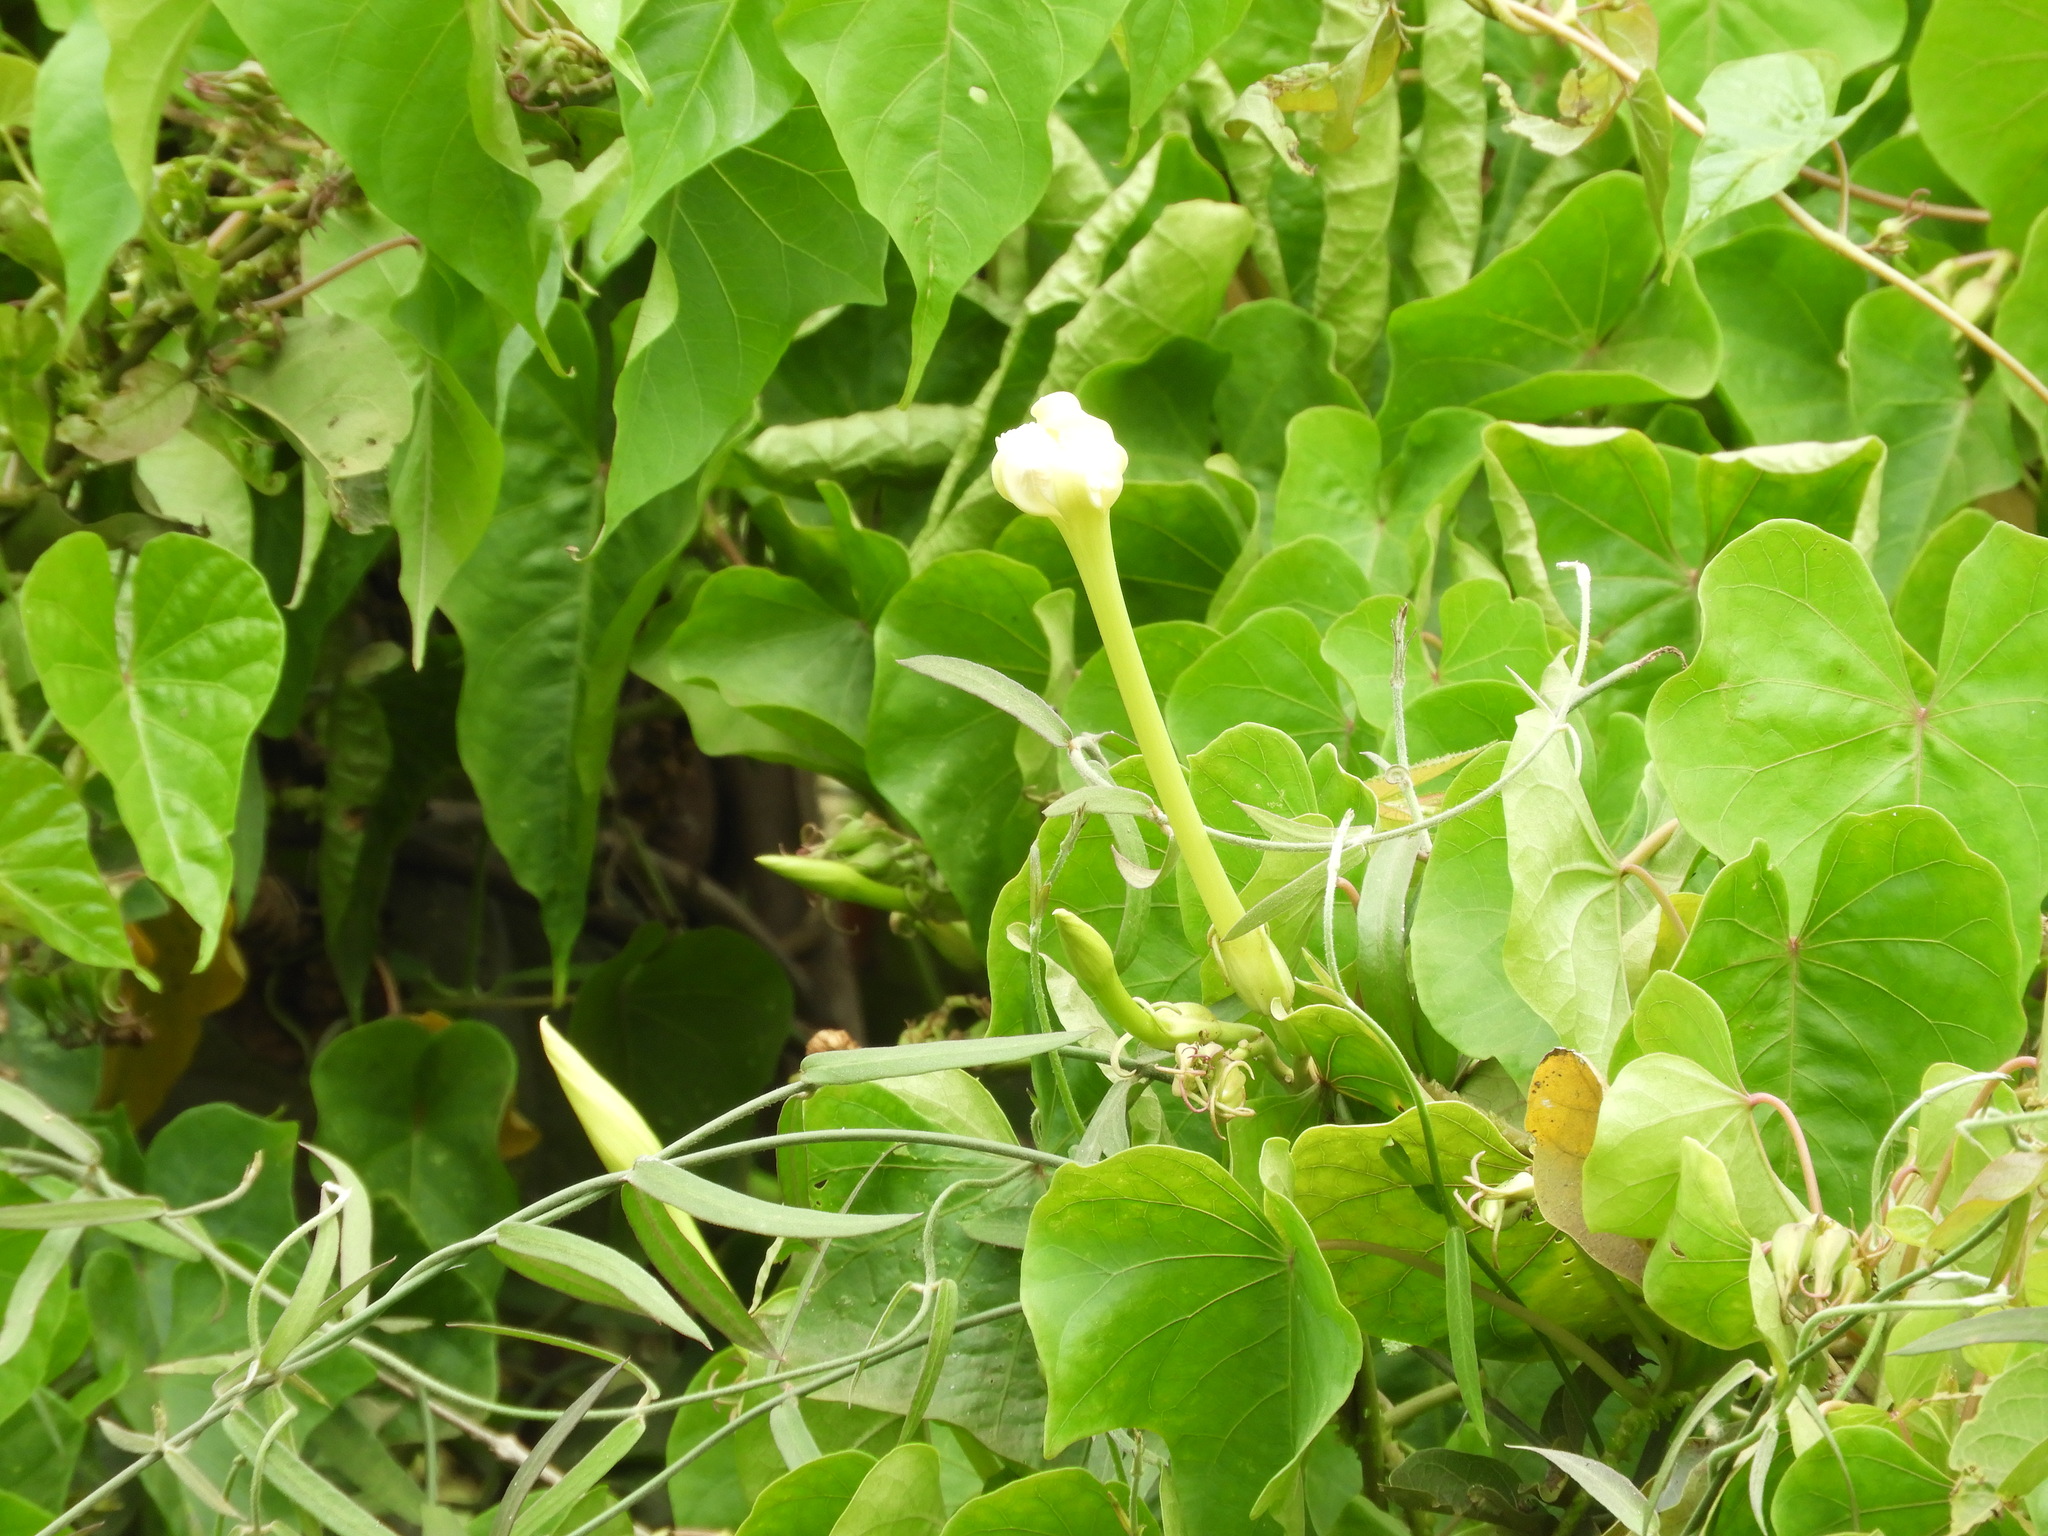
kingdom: Plantae
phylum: Tracheophyta
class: Magnoliopsida
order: Solanales
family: Convolvulaceae
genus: Ipomoea
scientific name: Ipomoea alba
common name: Moonflower
